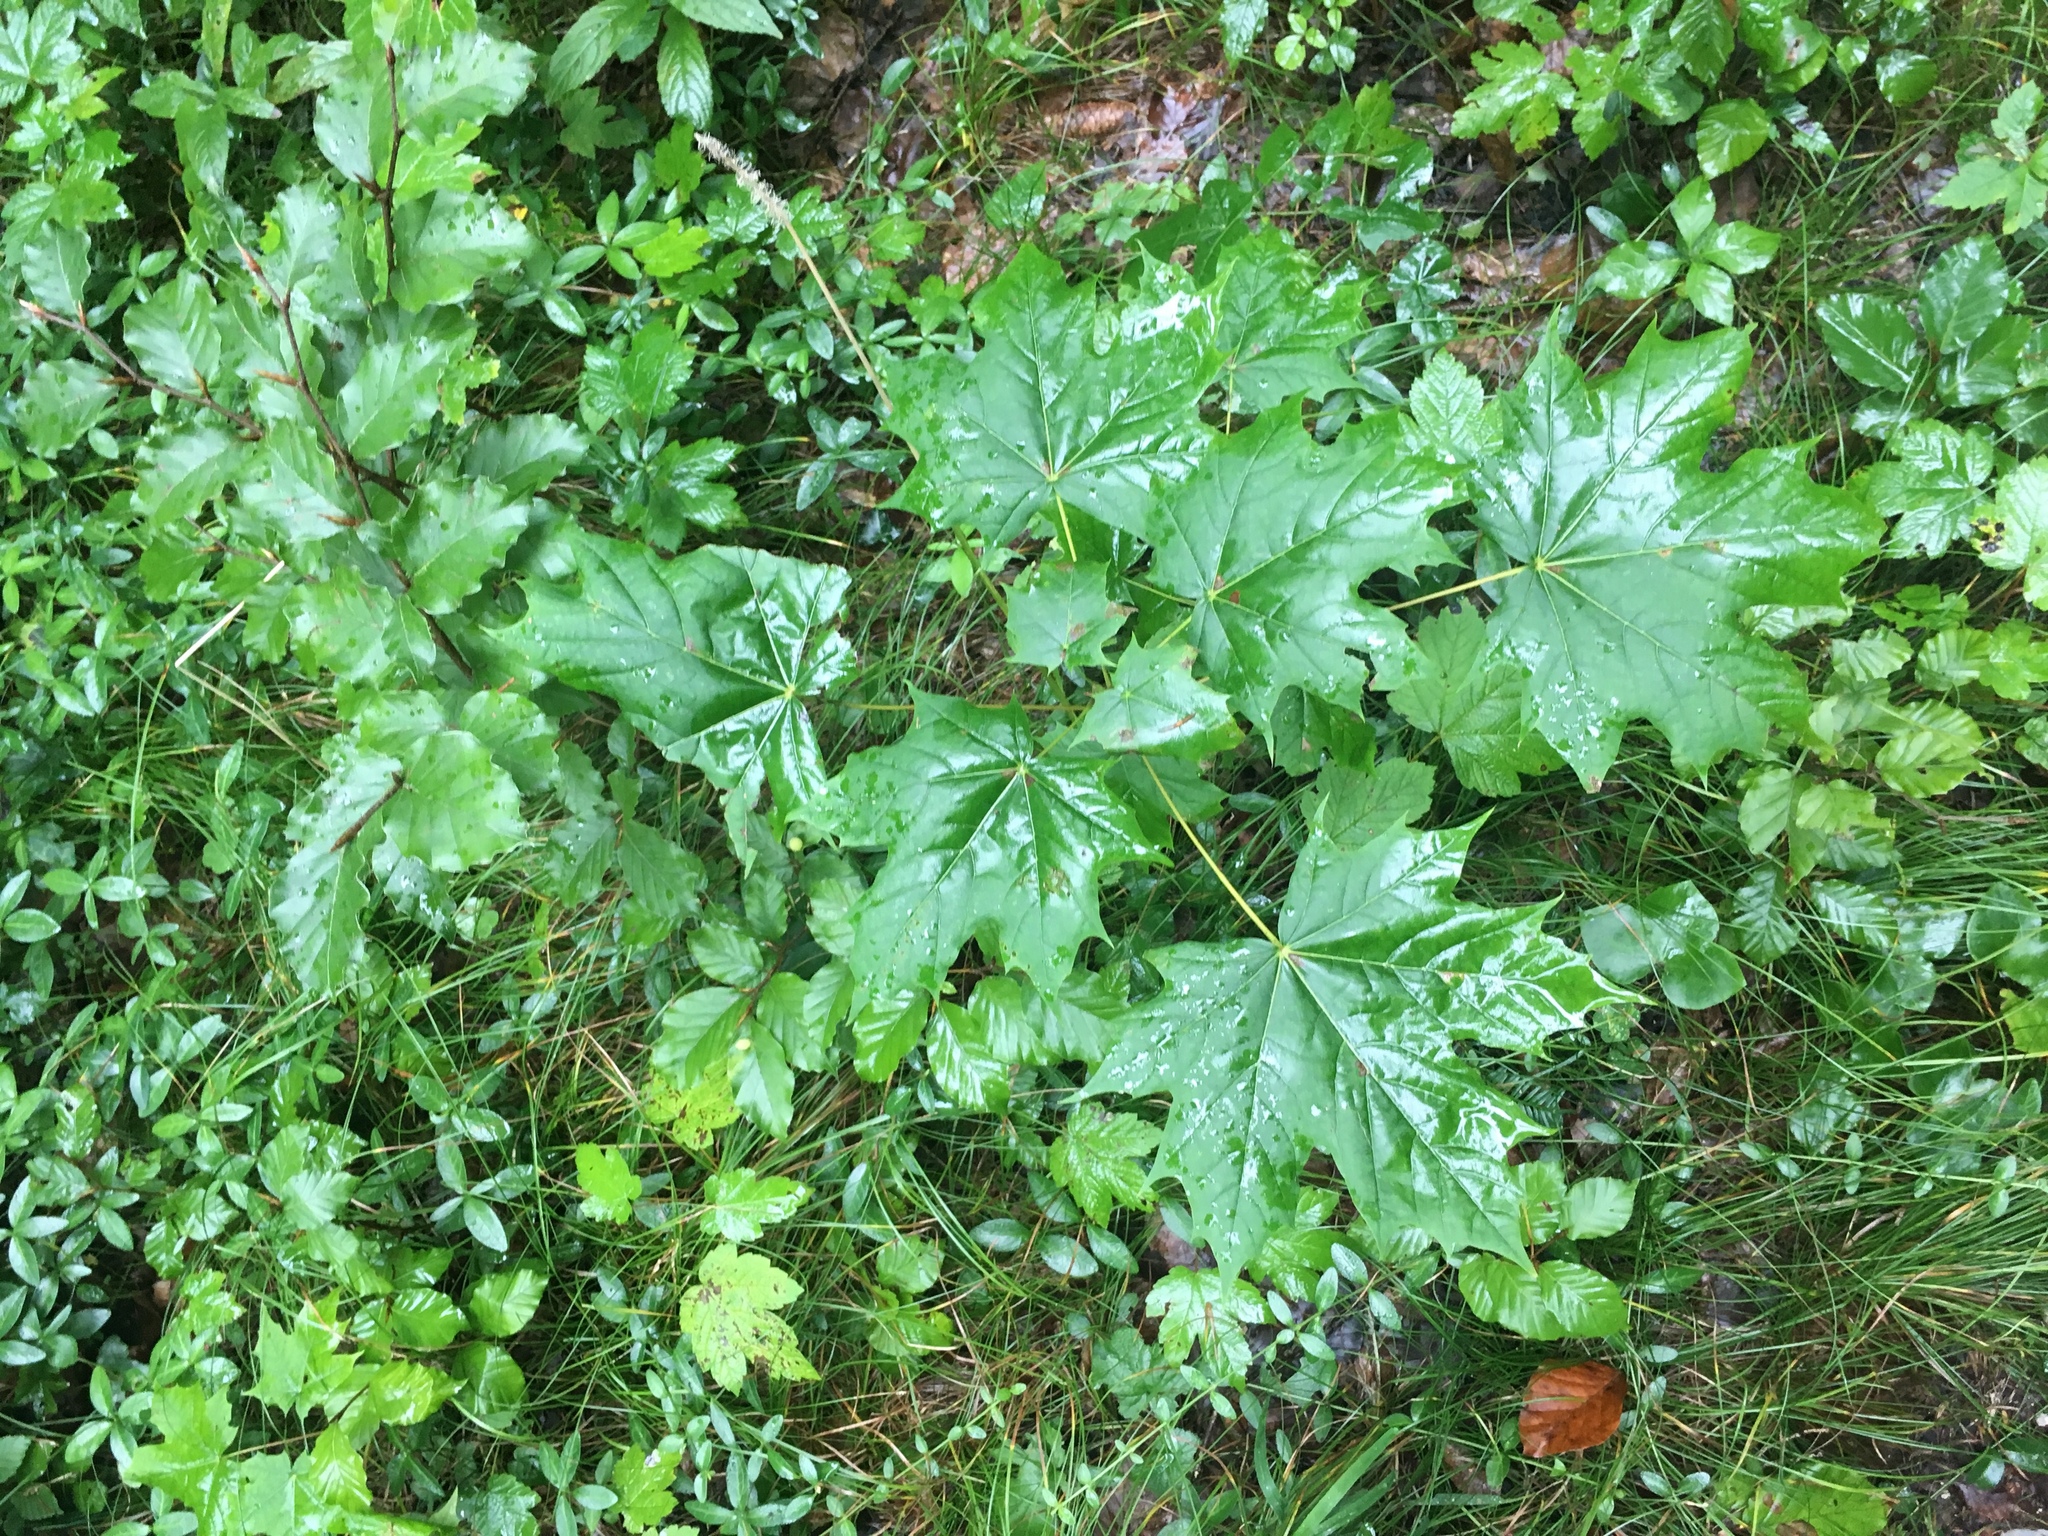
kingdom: Plantae
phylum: Tracheophyta
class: Magnoliopsida
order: Sapindales
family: Sapindaceae
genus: Acer
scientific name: Acer platanoides
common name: Norway maple
